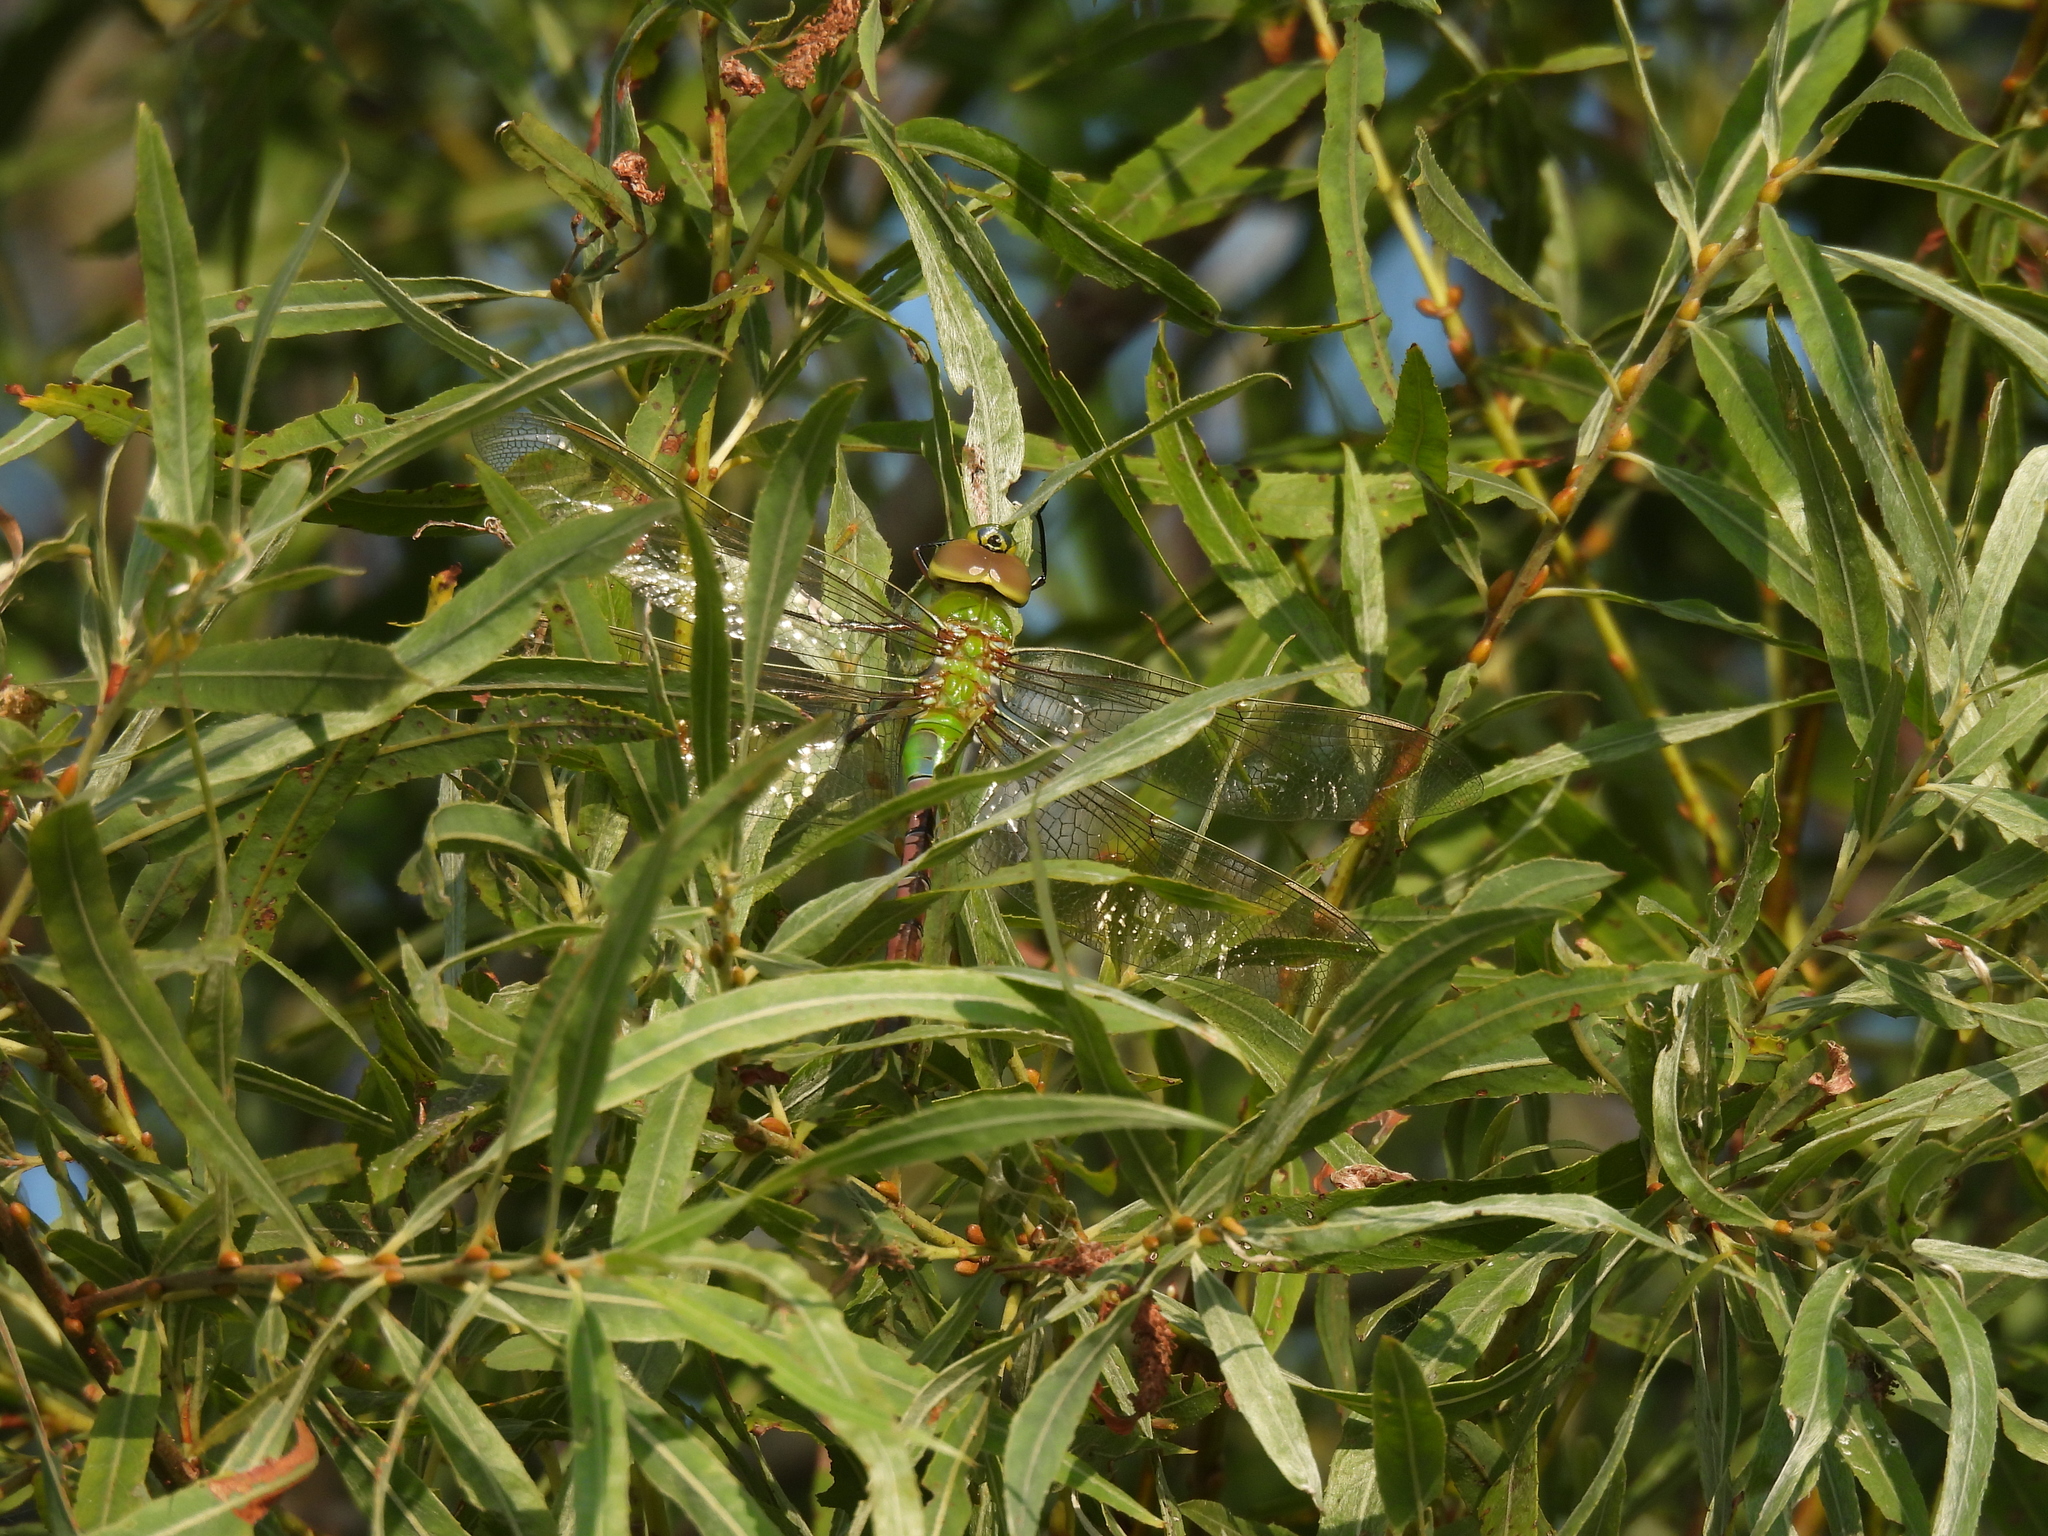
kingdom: Animalia
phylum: Arthropoda
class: Insecta
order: Odonata
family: Aeshnidae
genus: Anax
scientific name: Anax junius
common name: Common green darner
